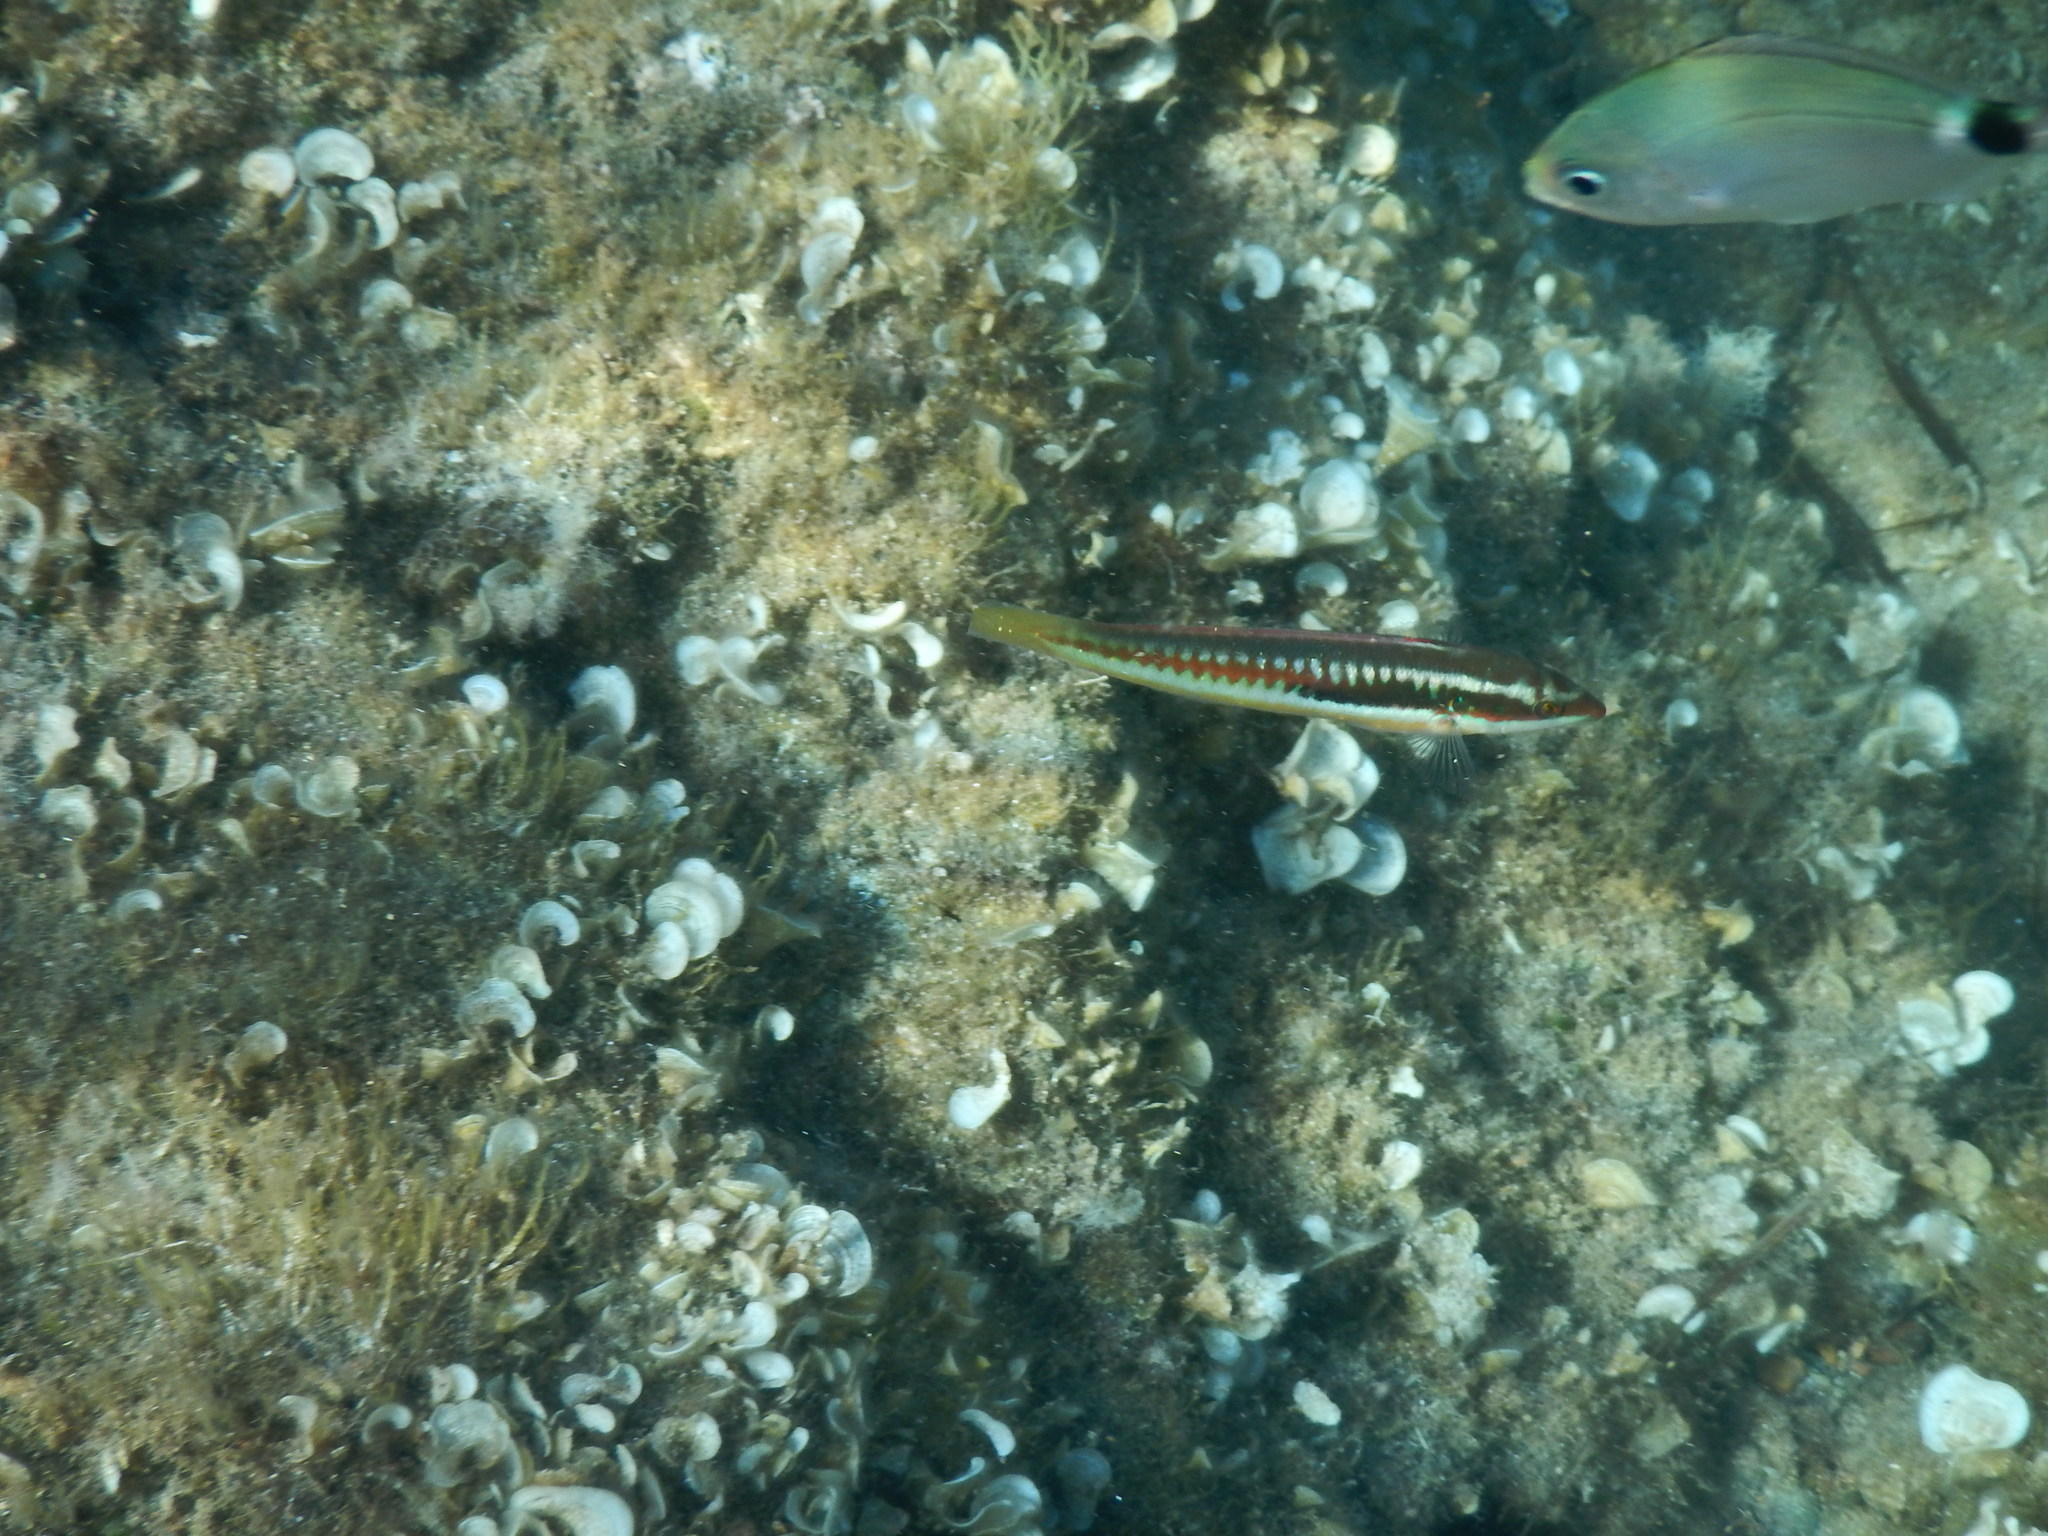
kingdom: Animalia
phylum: Chordata
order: Perciformes
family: Labridae
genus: Coris
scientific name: Coris julis
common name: Rainbow wrasse
